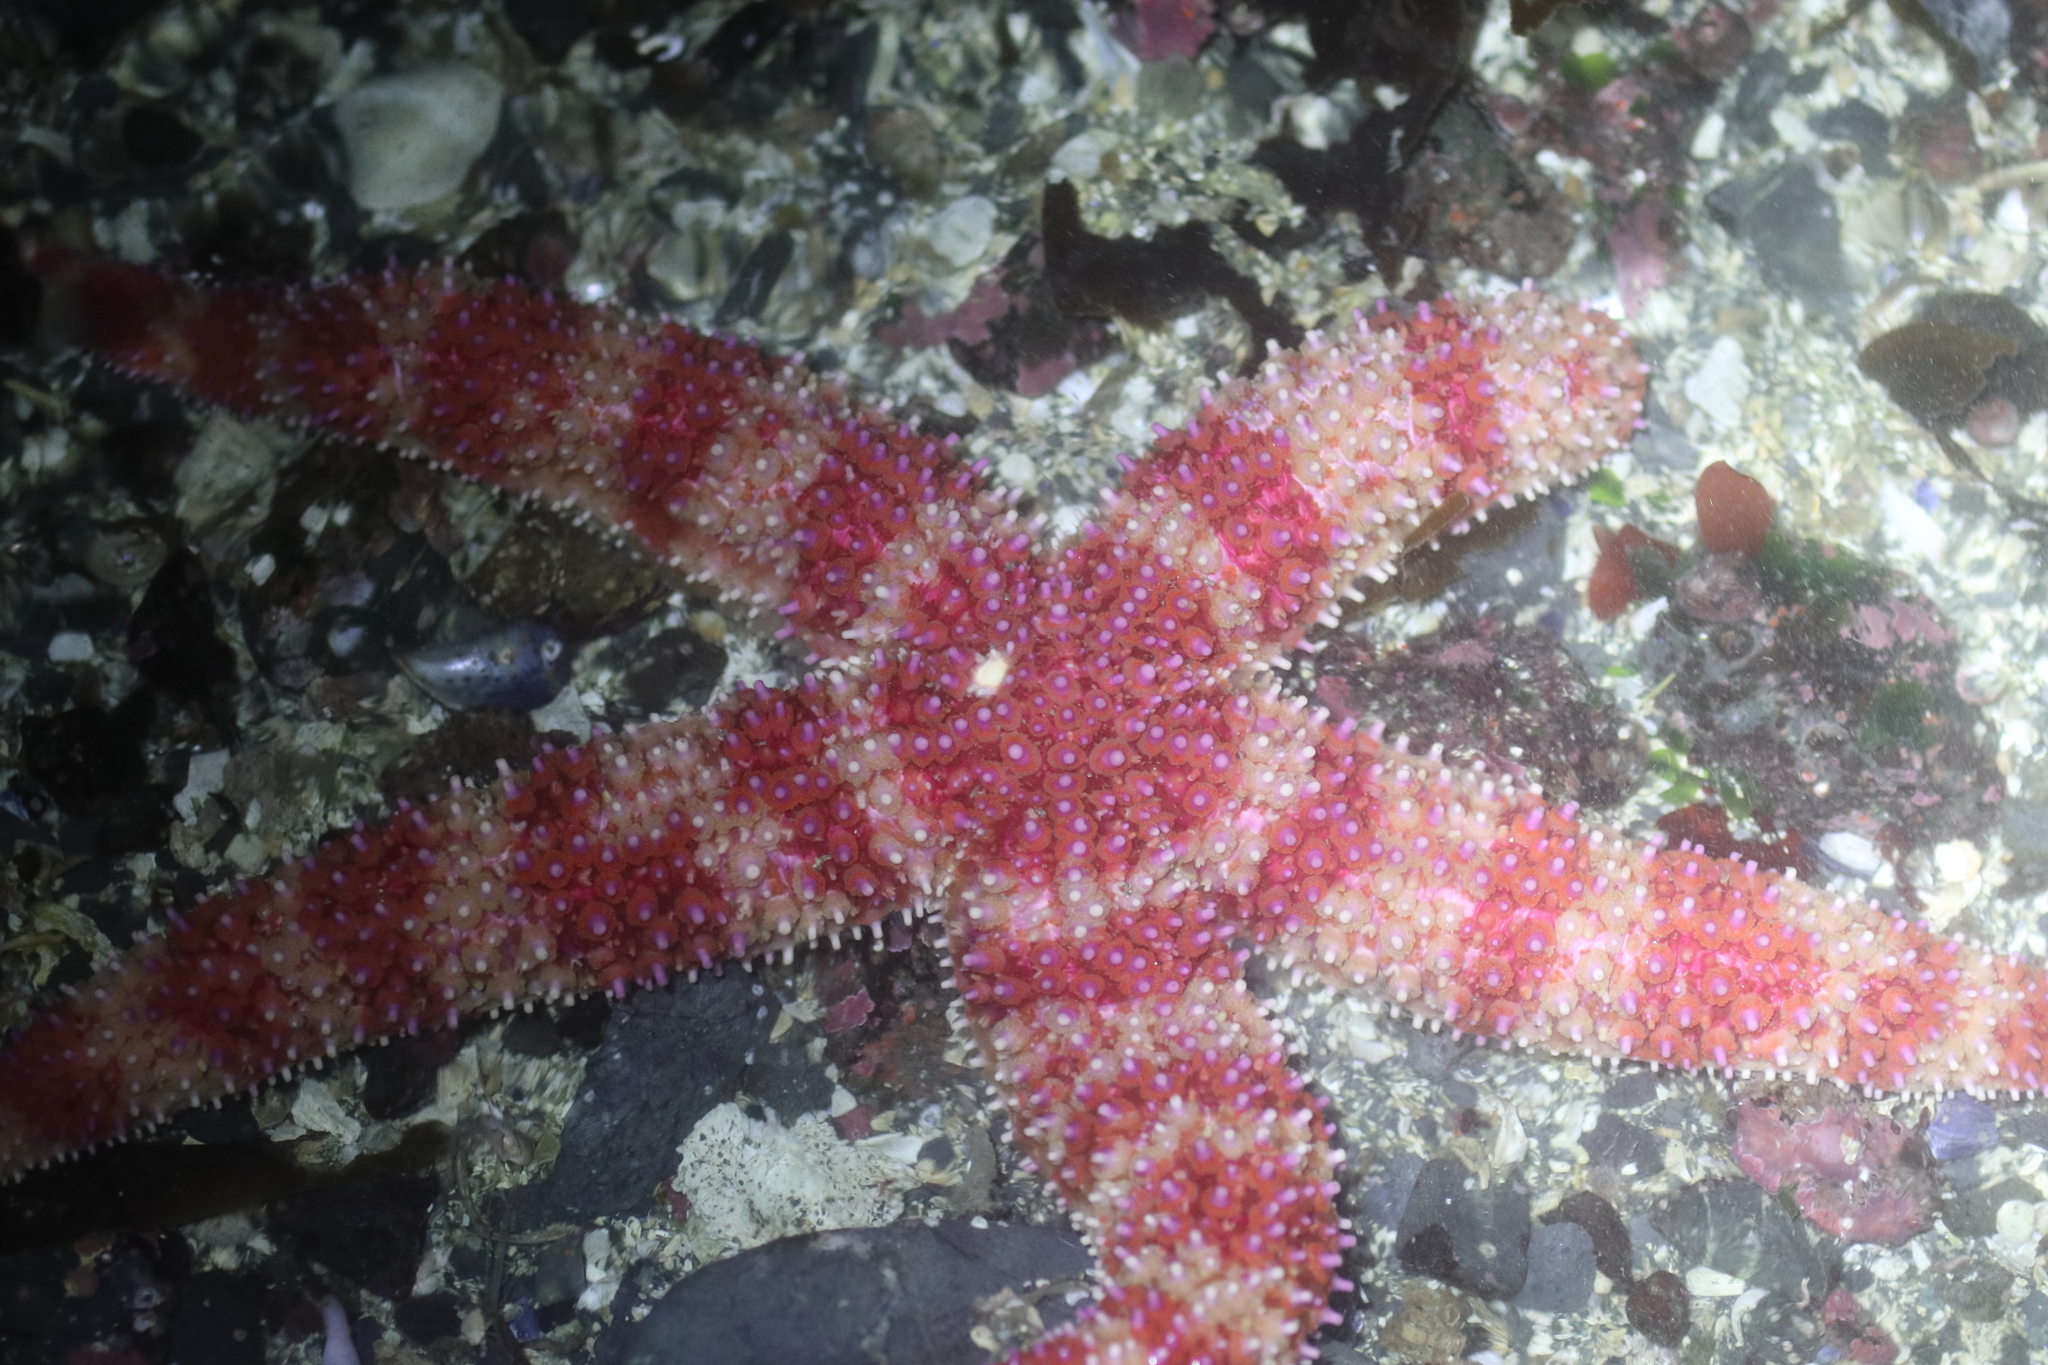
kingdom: Animalia
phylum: Echinodermata
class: Asteroidea
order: Forcipulatida
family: Asteriidae
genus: Orthasterias
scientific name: Orthasterias koehleri
